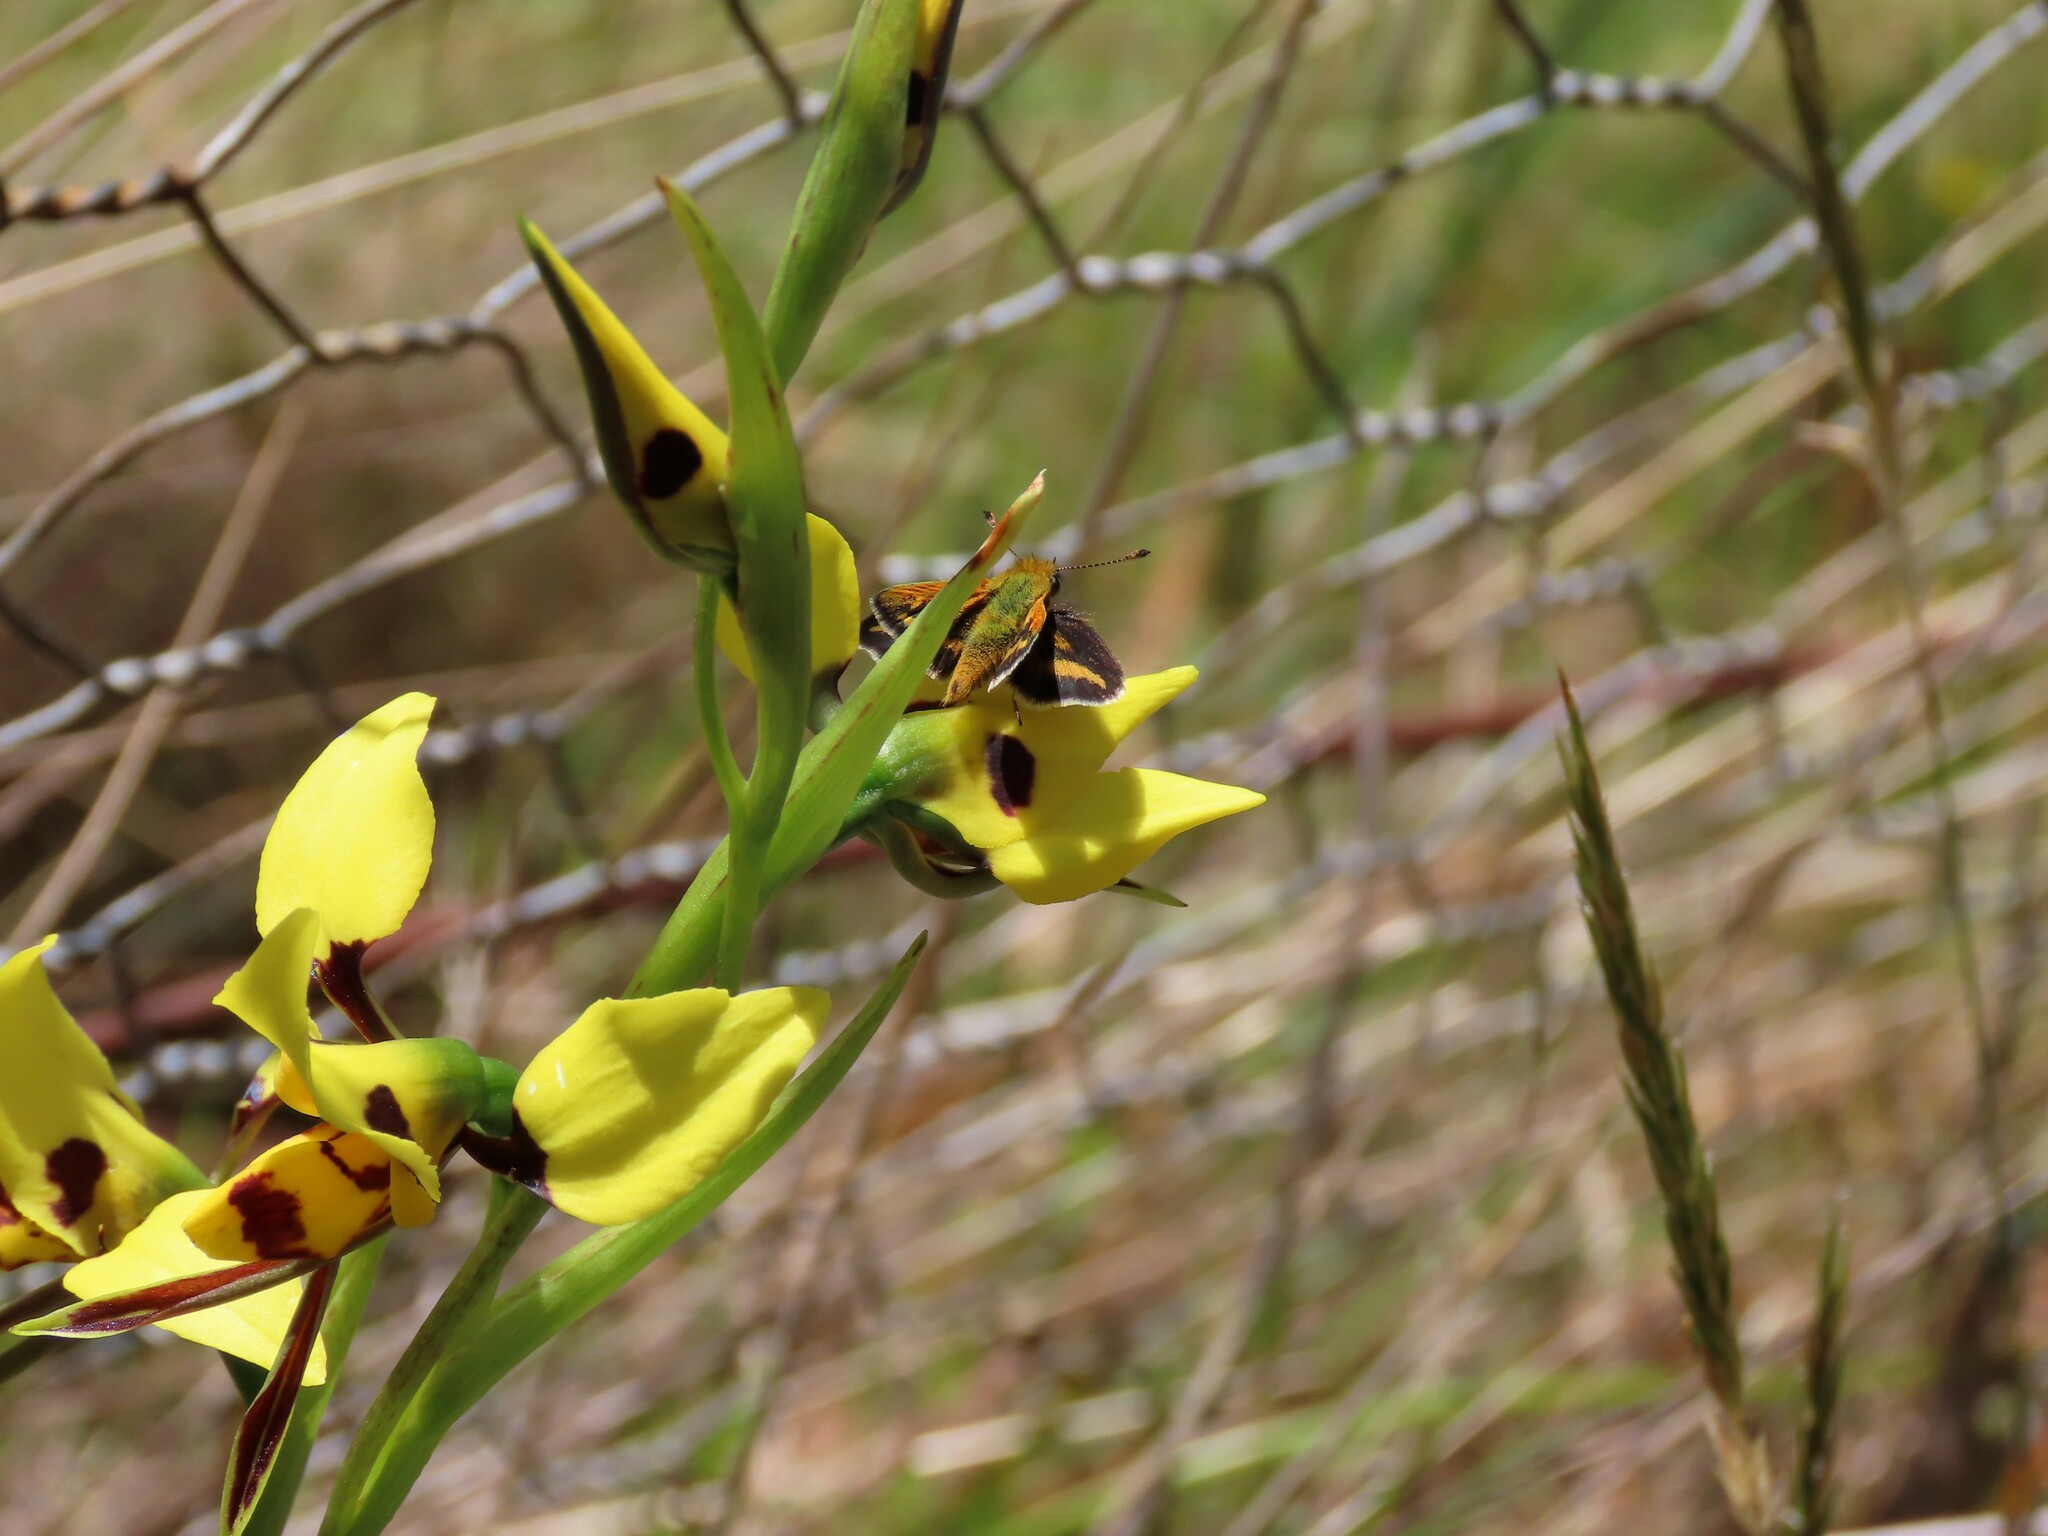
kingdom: Animalia
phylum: Arthropoda
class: Insecta
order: Lepidoptera
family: Hesperiidae
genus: Taractrocera
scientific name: Taractrocera papyria
